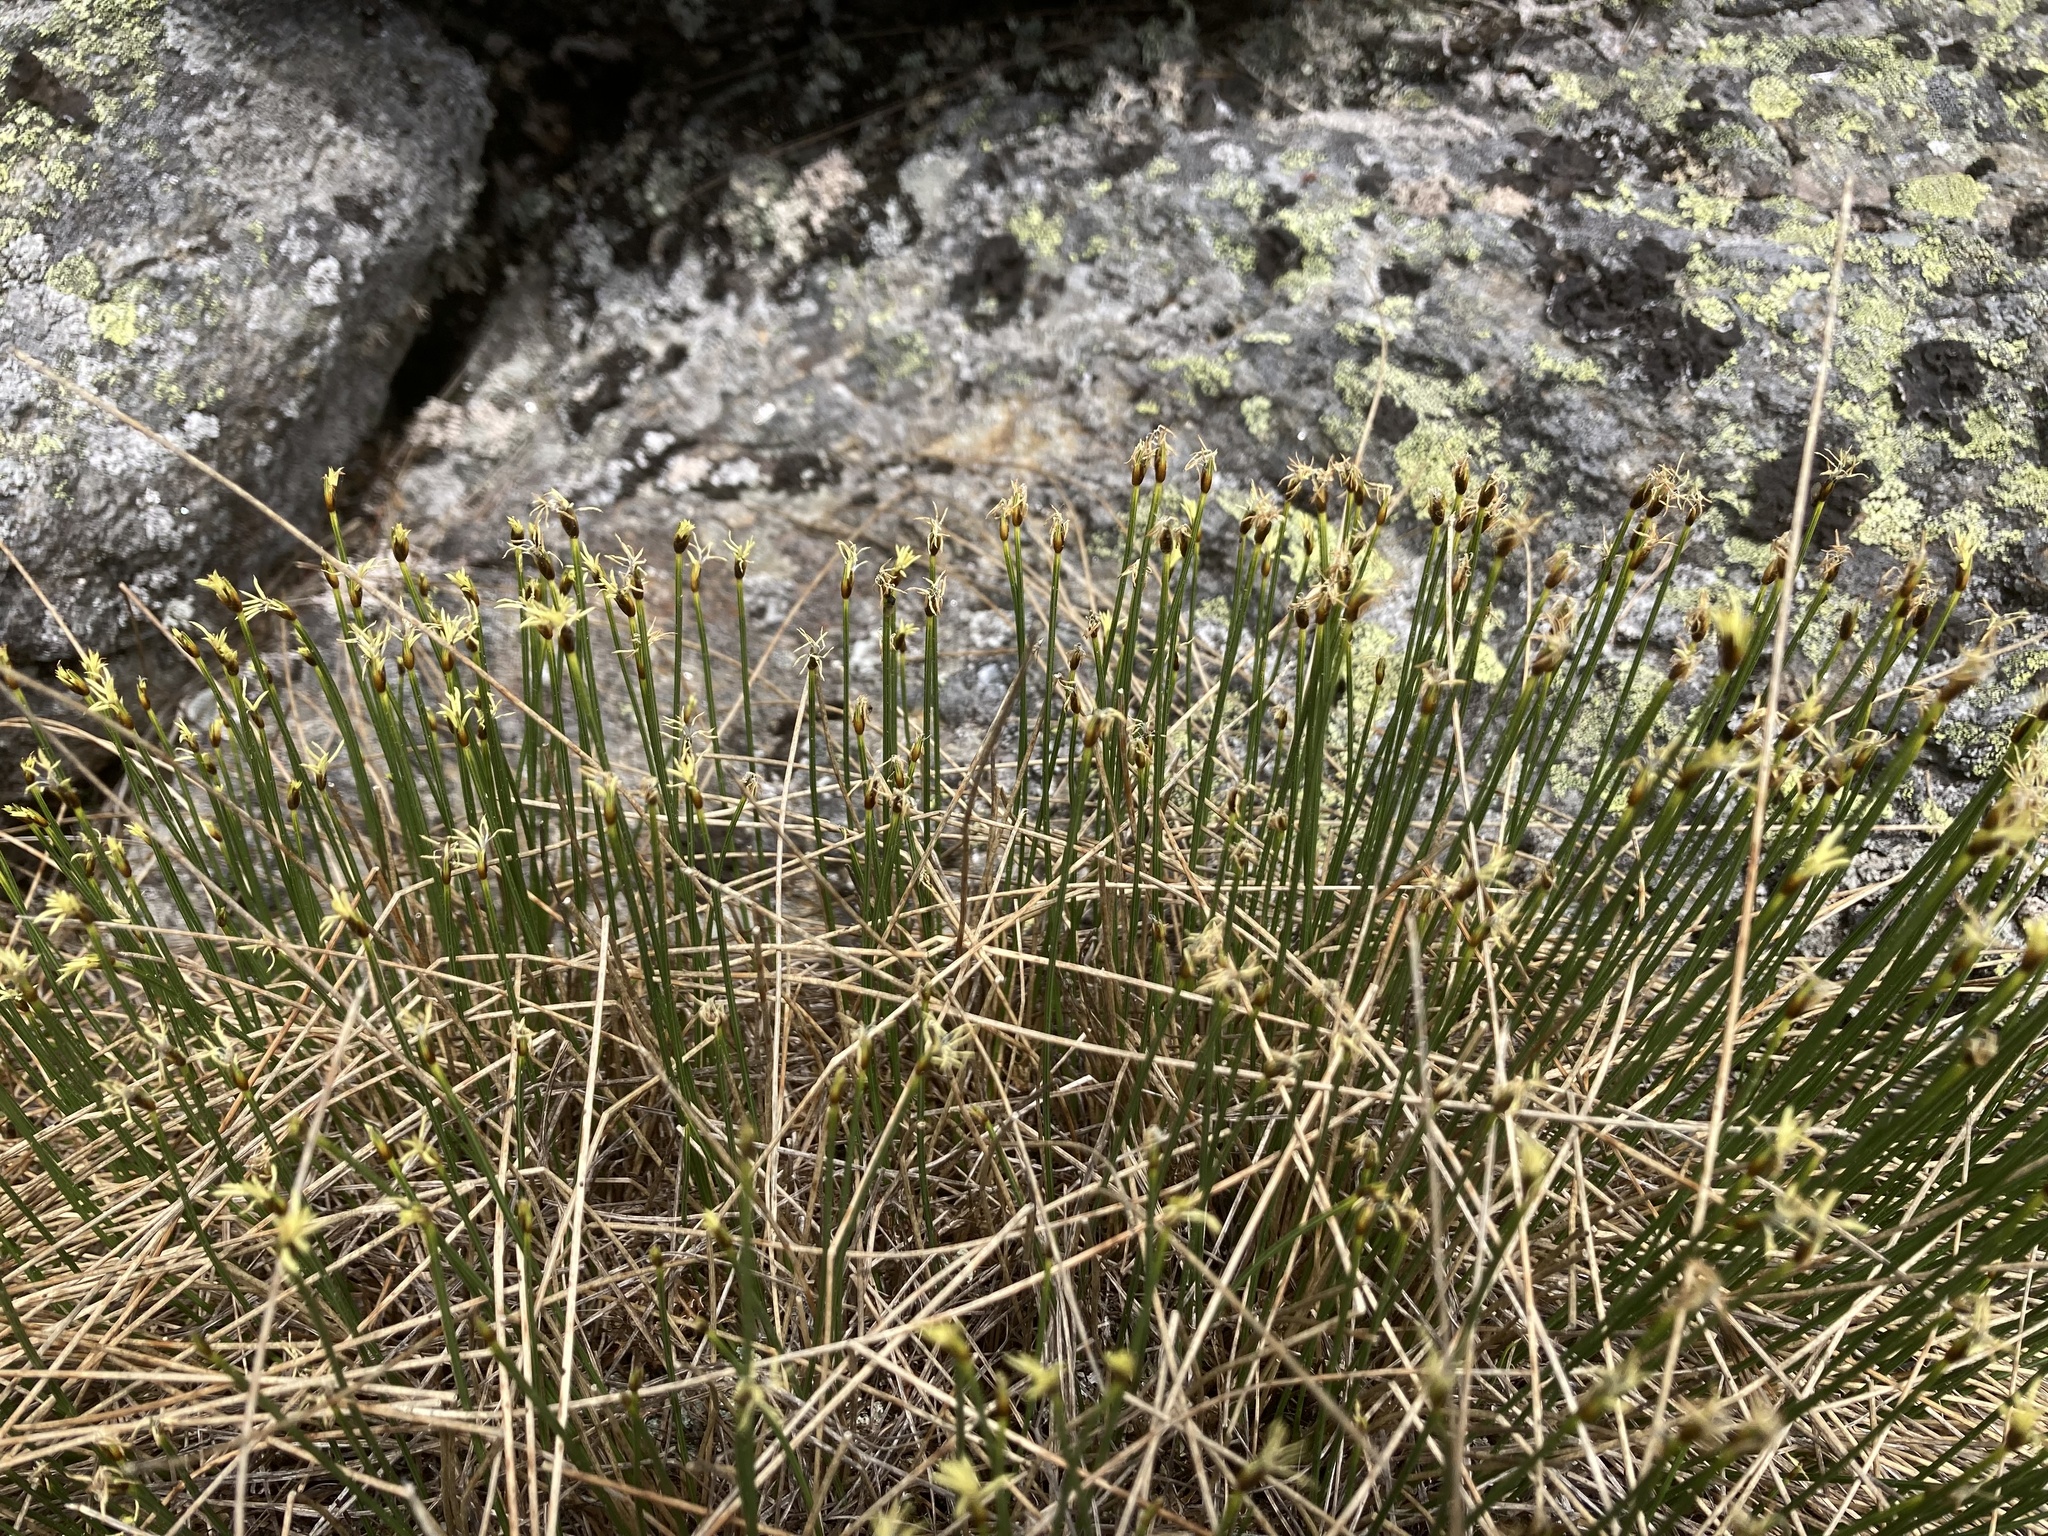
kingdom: Plantae
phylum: Tracheophyta
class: Liliopsida
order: Poales
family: Cyperaceae
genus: Trichophorum
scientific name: Trichophorum cespitosum
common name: Cespitose bulrush
